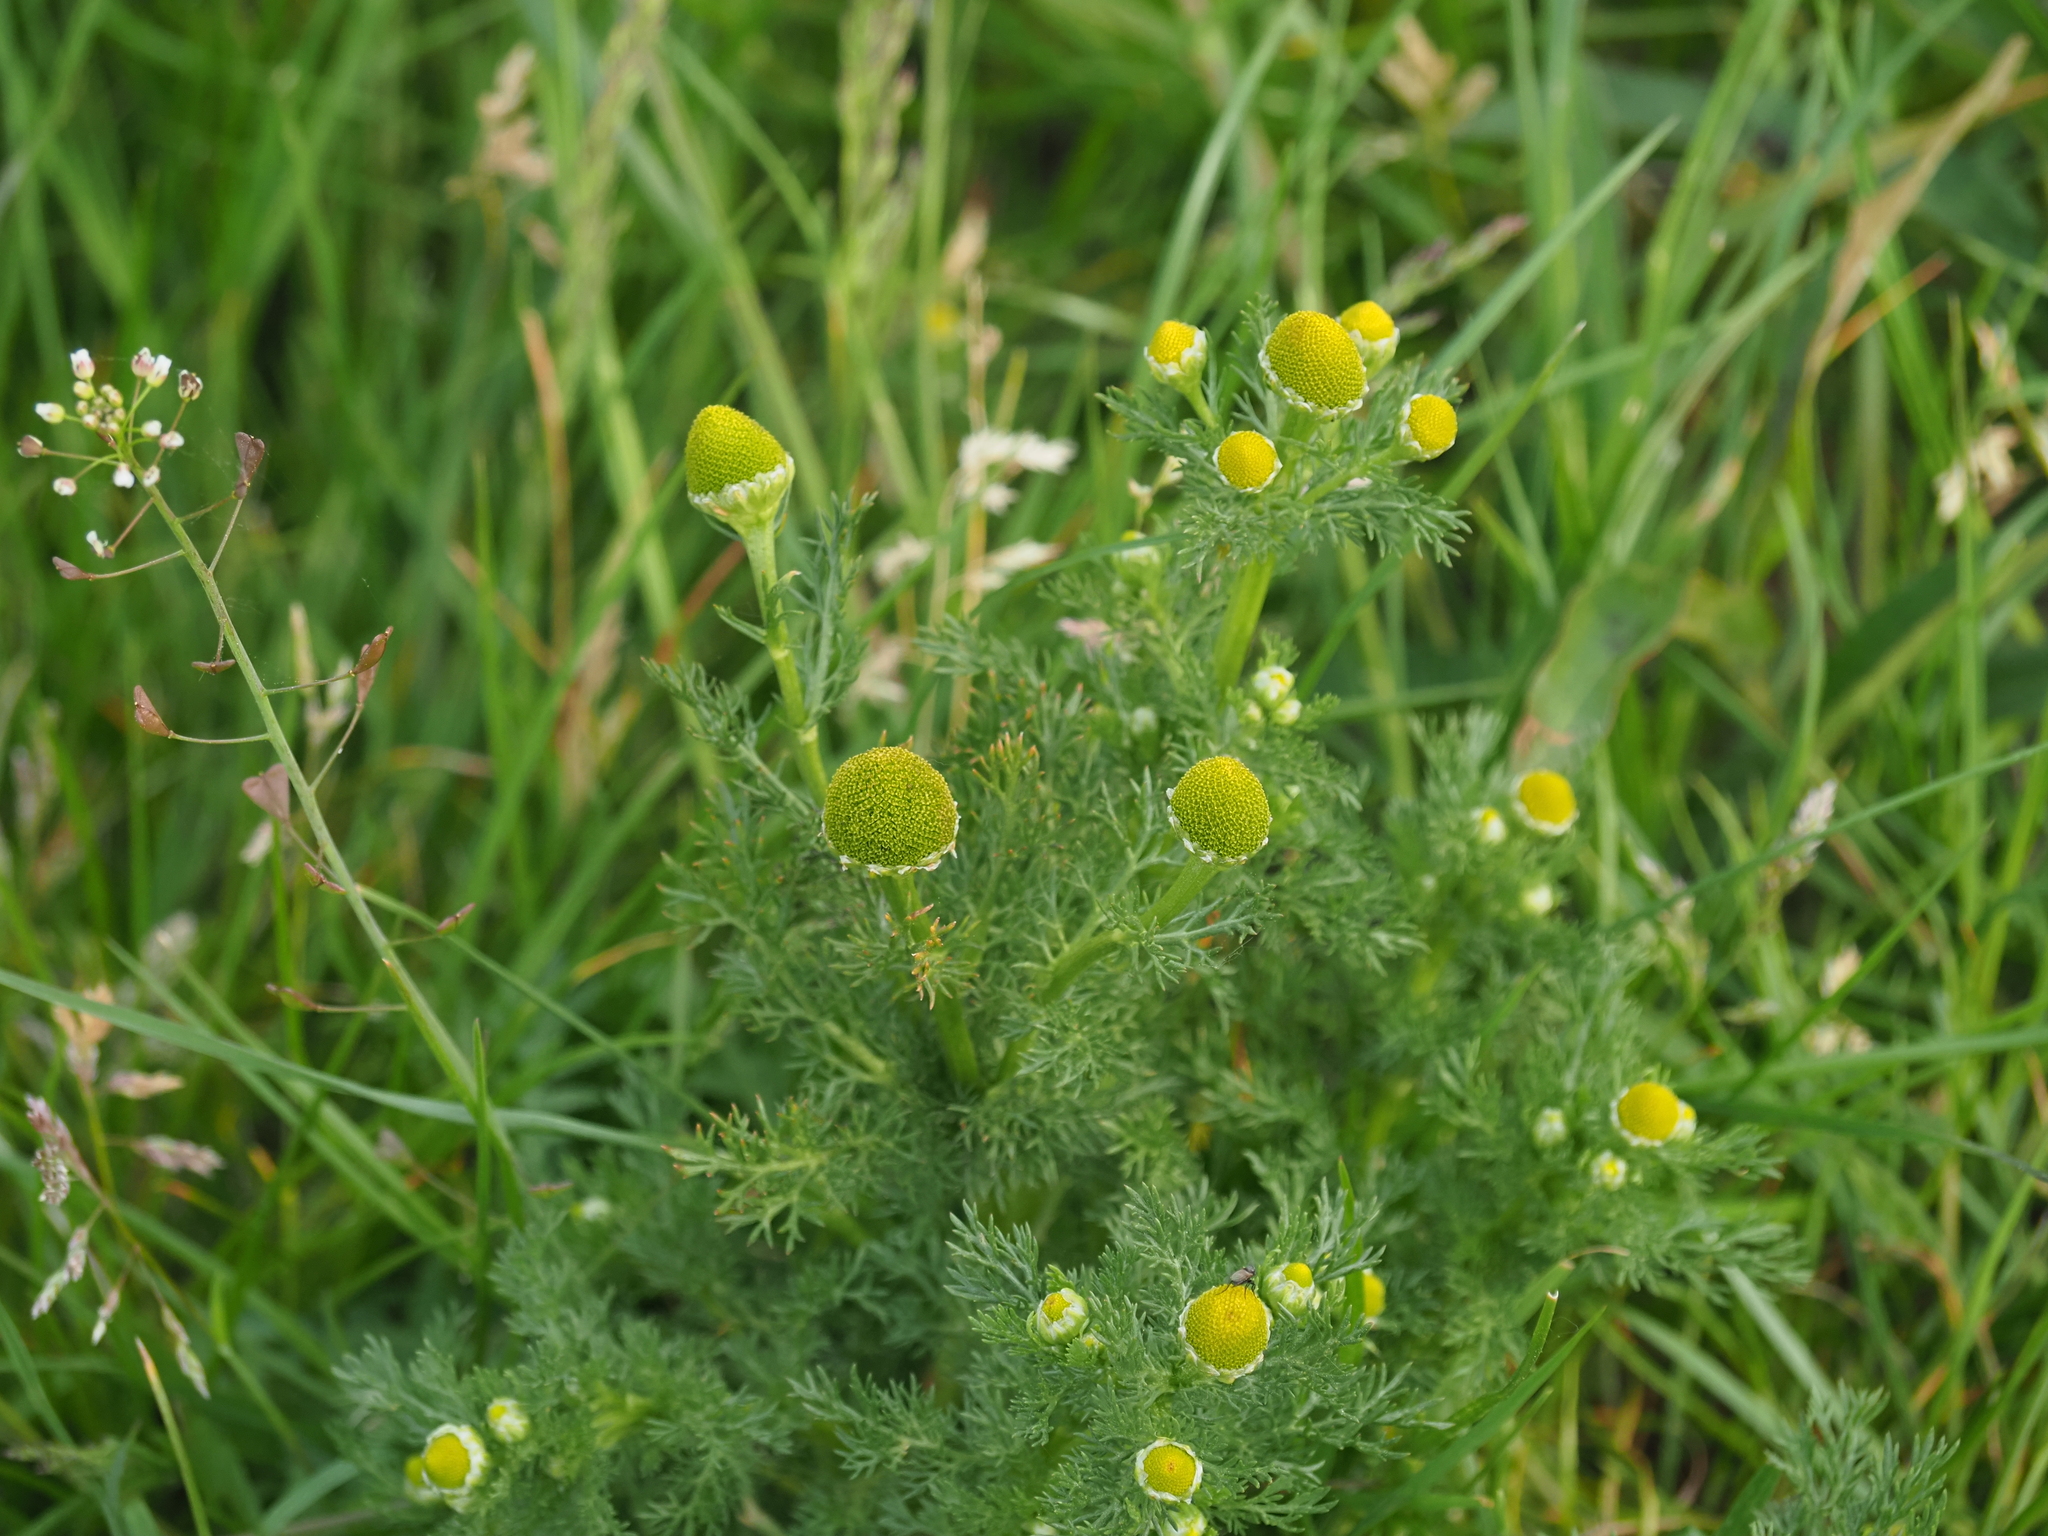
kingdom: Plantae
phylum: Tracheophyta
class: Magnoliopsida
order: Asterales
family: Asteraceae
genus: Matricaria
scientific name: Matricaria discoidea
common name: Disc mayweed
